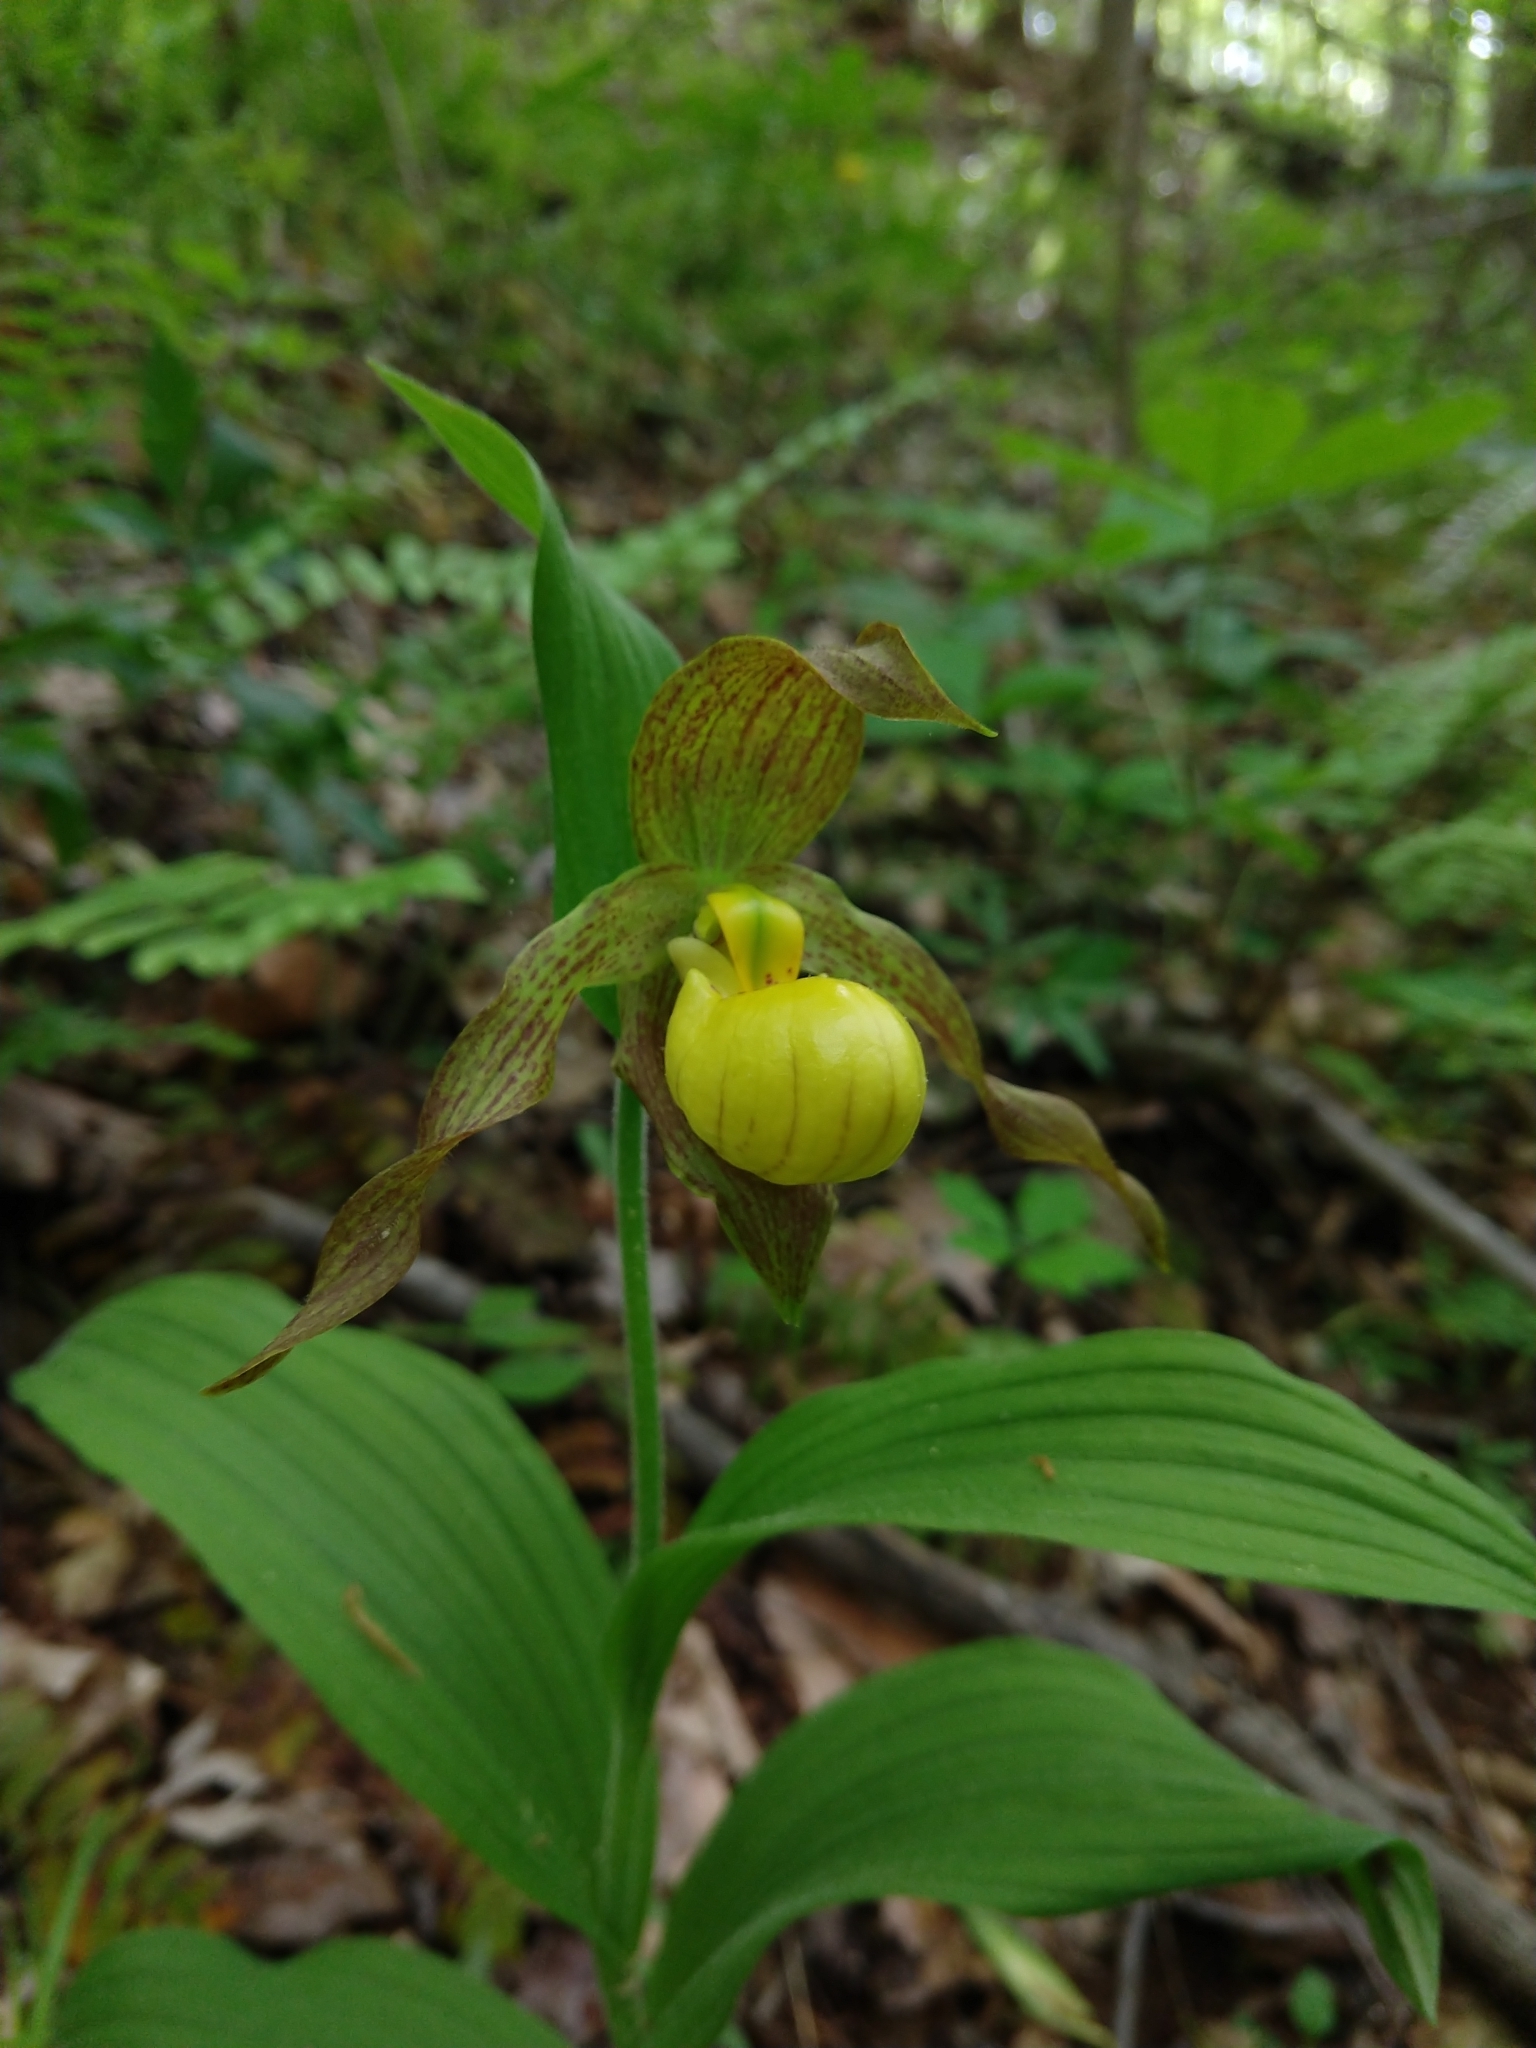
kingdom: Plantae
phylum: Tracheophyta
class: Liliopsida
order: Asparagales
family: Orchidaceae
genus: Cypripedium
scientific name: Cypripedium parviflorum
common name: American yellow lady's-slipper
